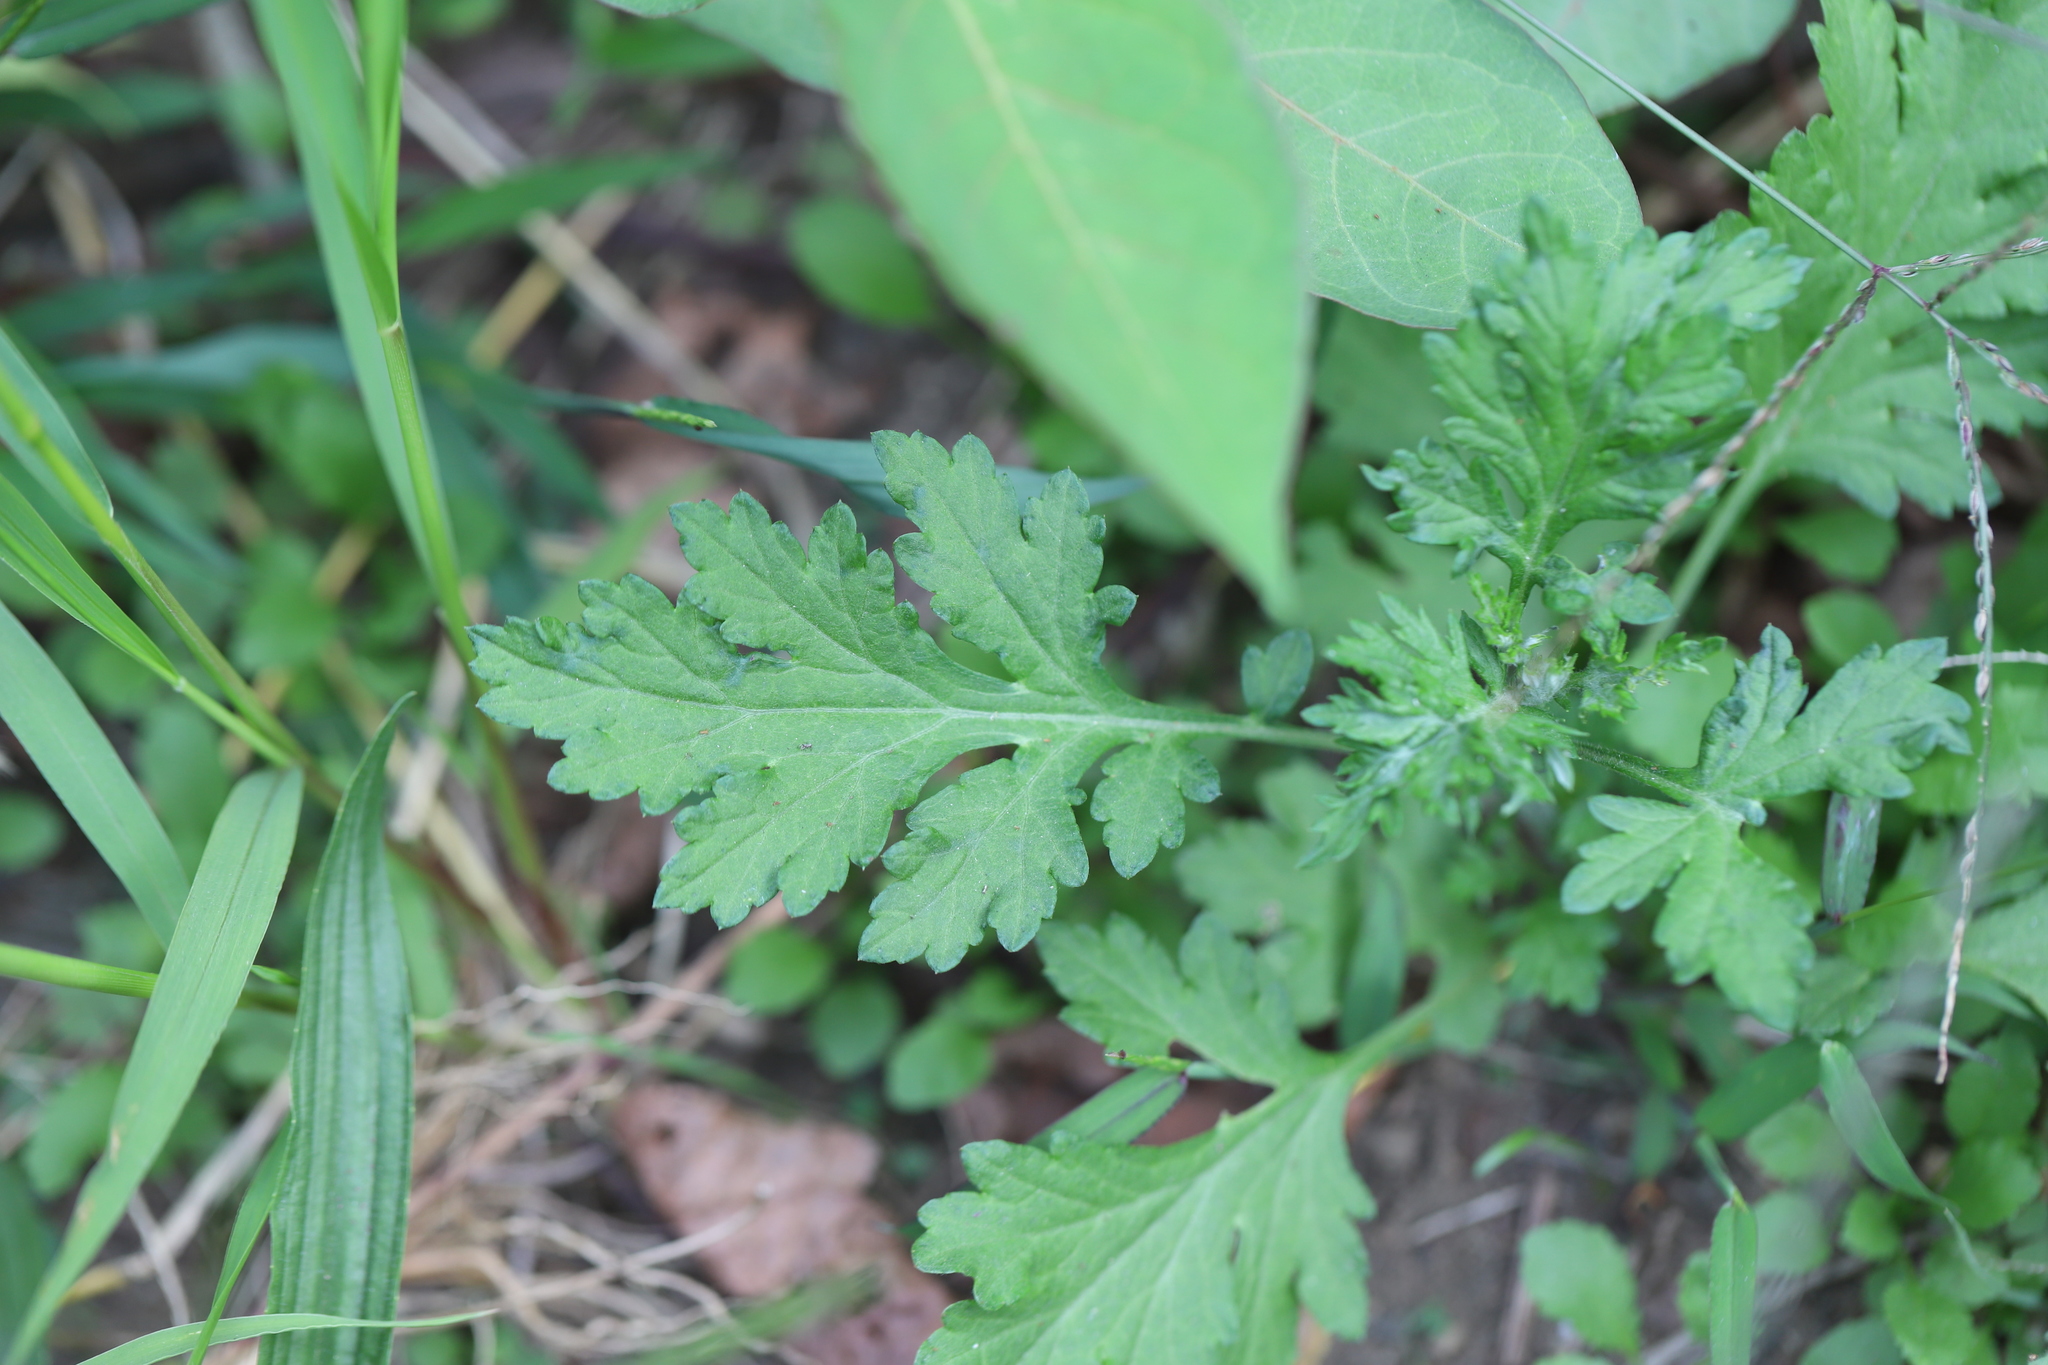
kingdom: Plantae
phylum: Tracheophyta
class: Magnoliopsida
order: Asterales
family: Asteraceae
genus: Artemisia
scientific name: Artemisia vulgaris
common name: Mugwort
